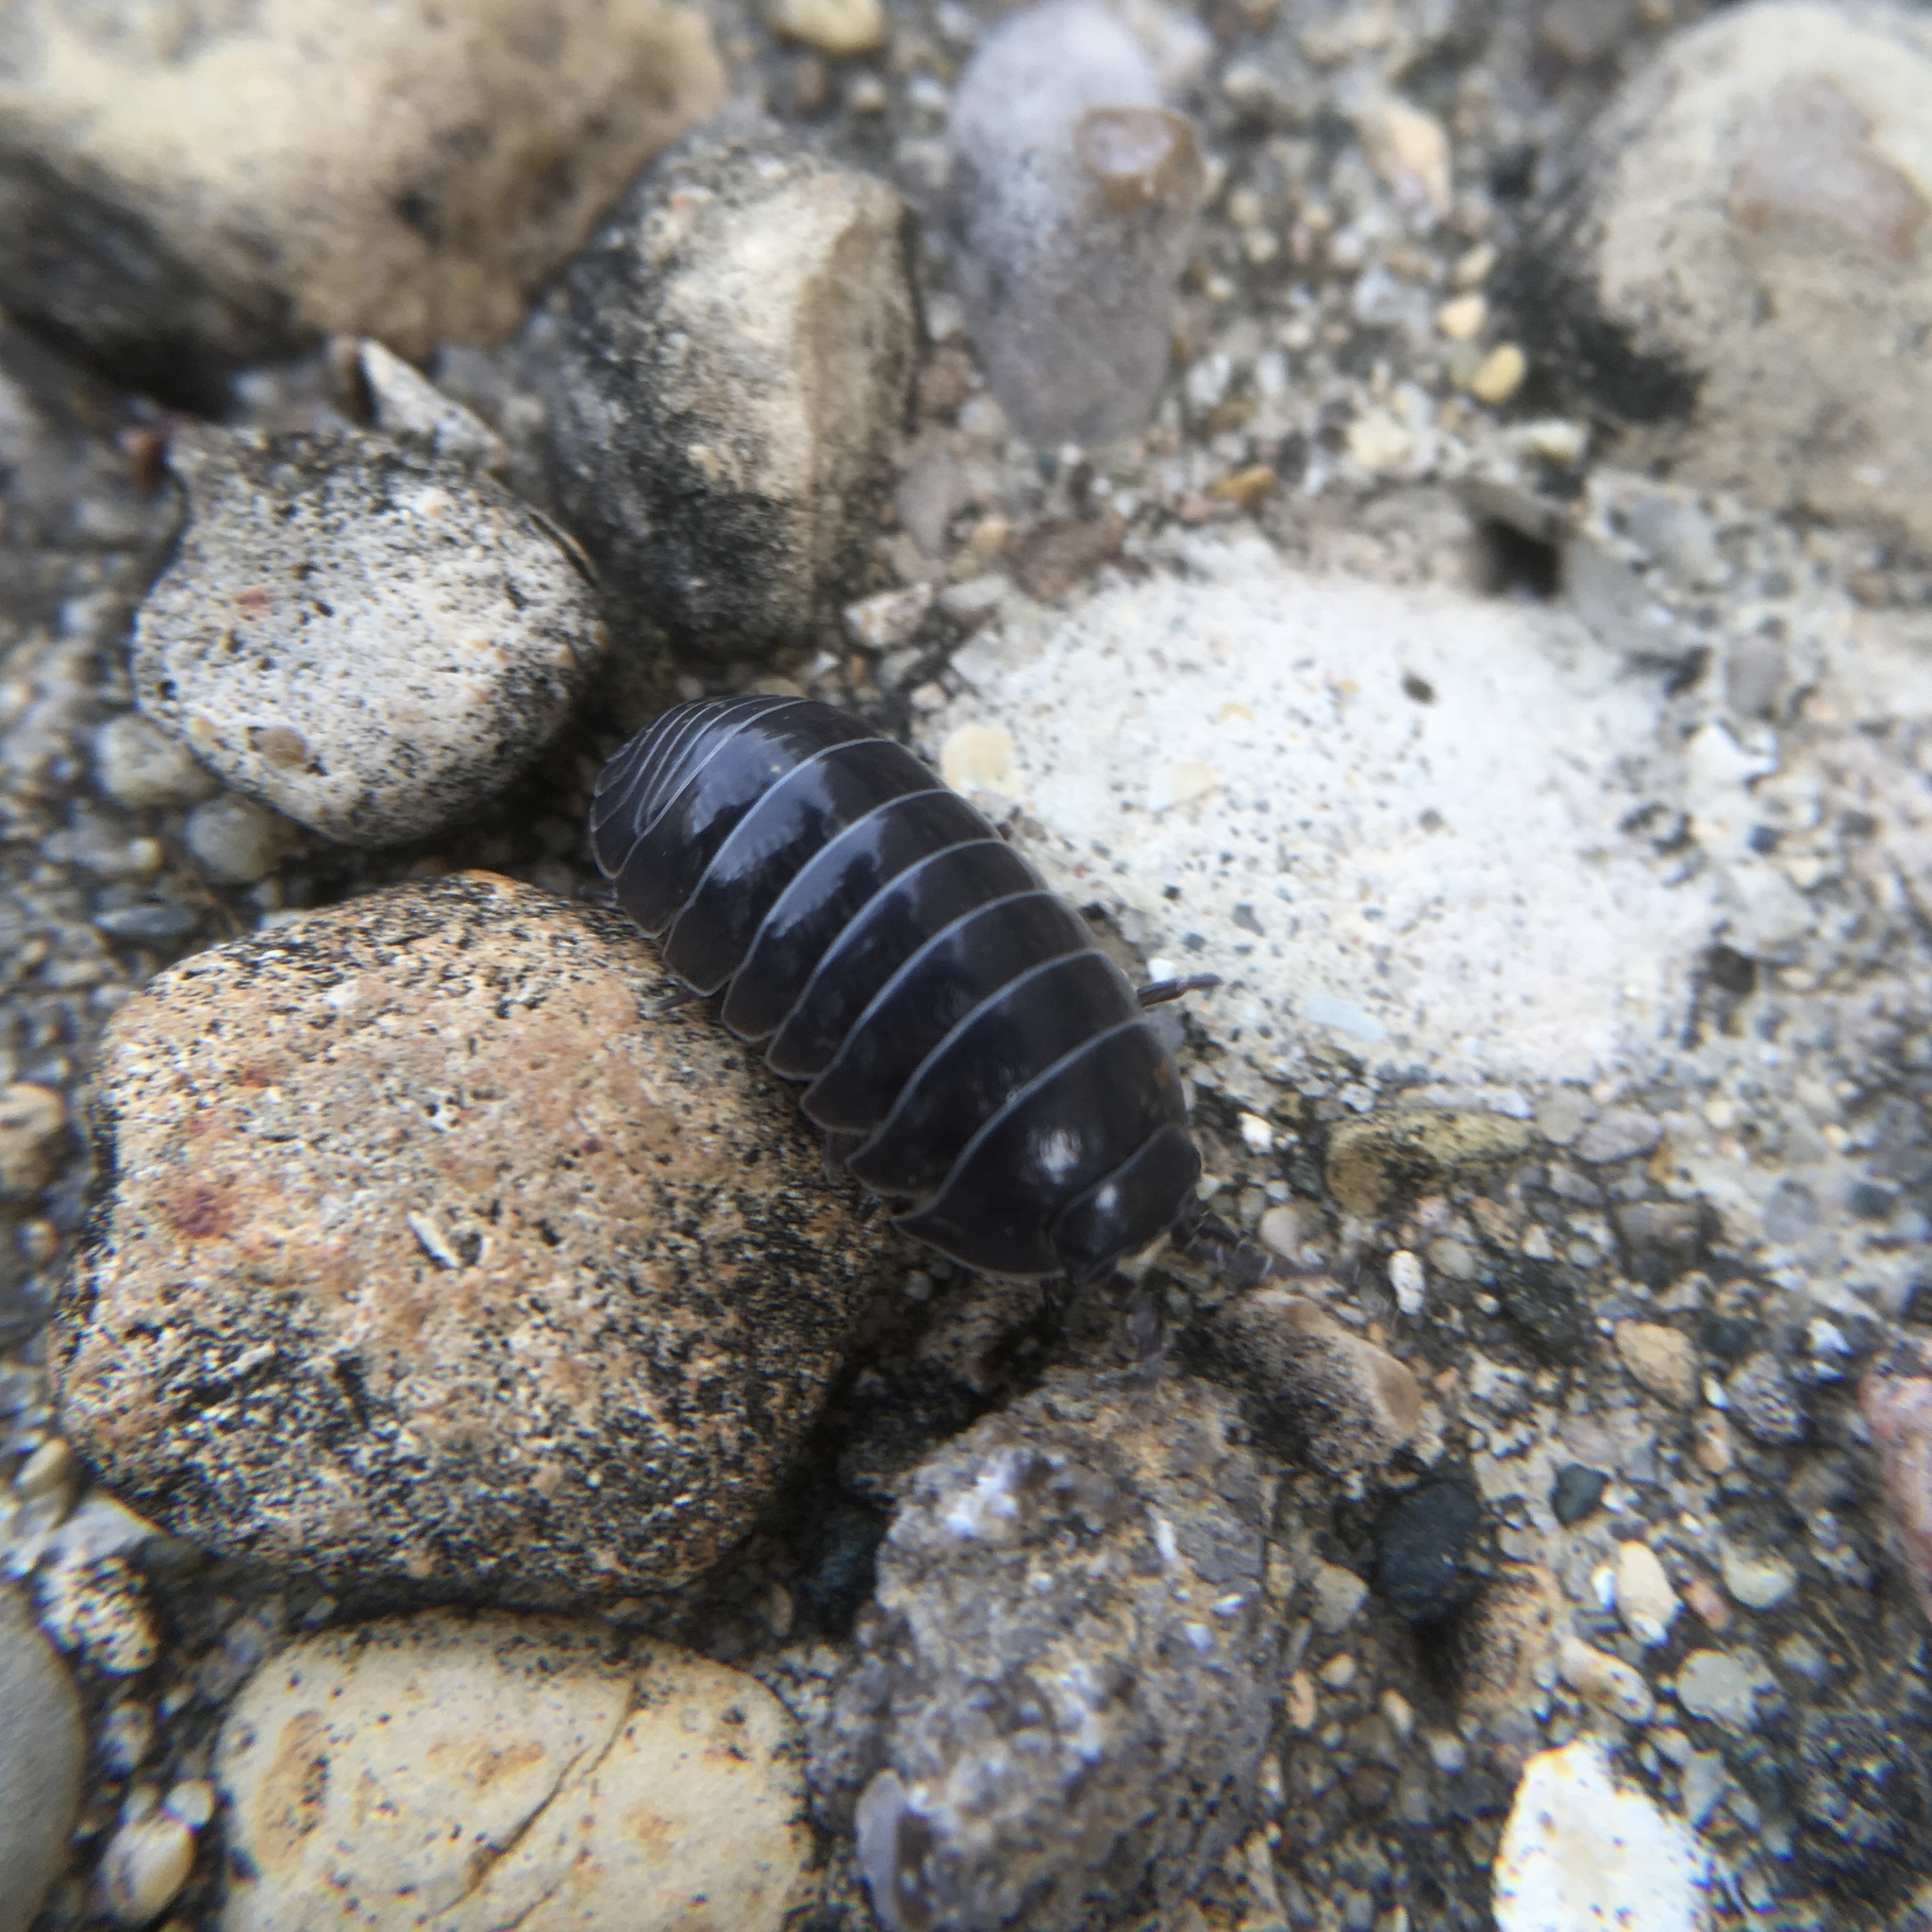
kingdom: Animalia
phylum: Arthropoda
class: Malacostraca
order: Isopoda
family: Armadillidiidae
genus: Armadillidium
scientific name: Armadillidium vulgare
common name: Common pill woodlouse
